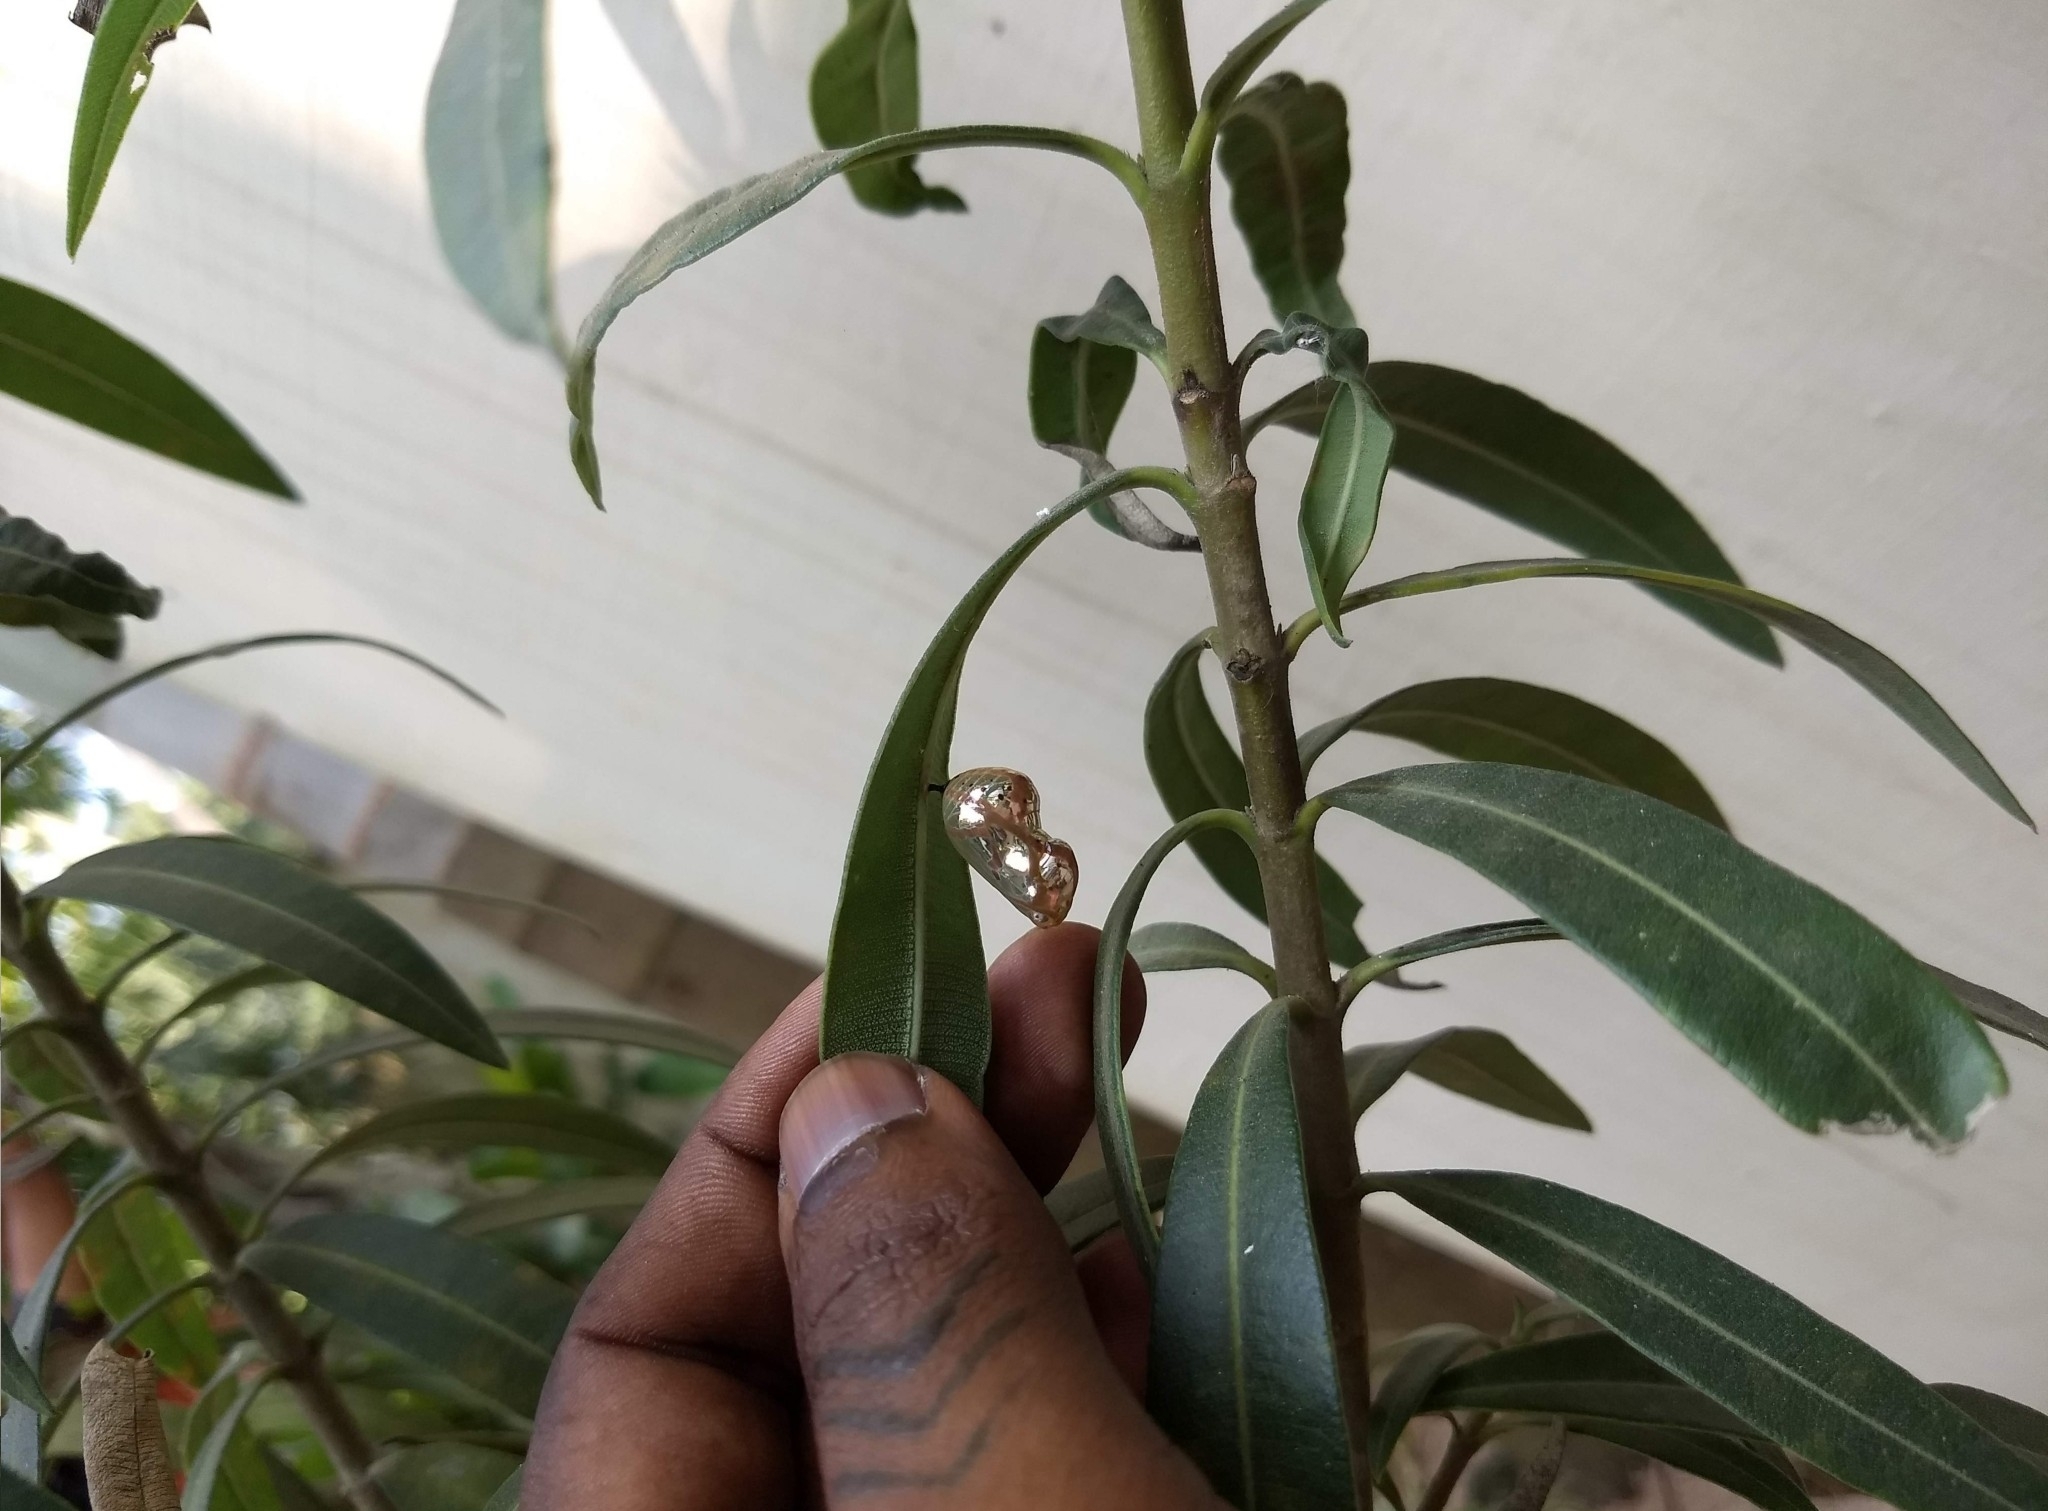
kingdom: Animalia
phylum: Arthropoda
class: Insecta
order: Lepidoptera
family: Nymphalidae
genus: Euploea
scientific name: Euploea core
